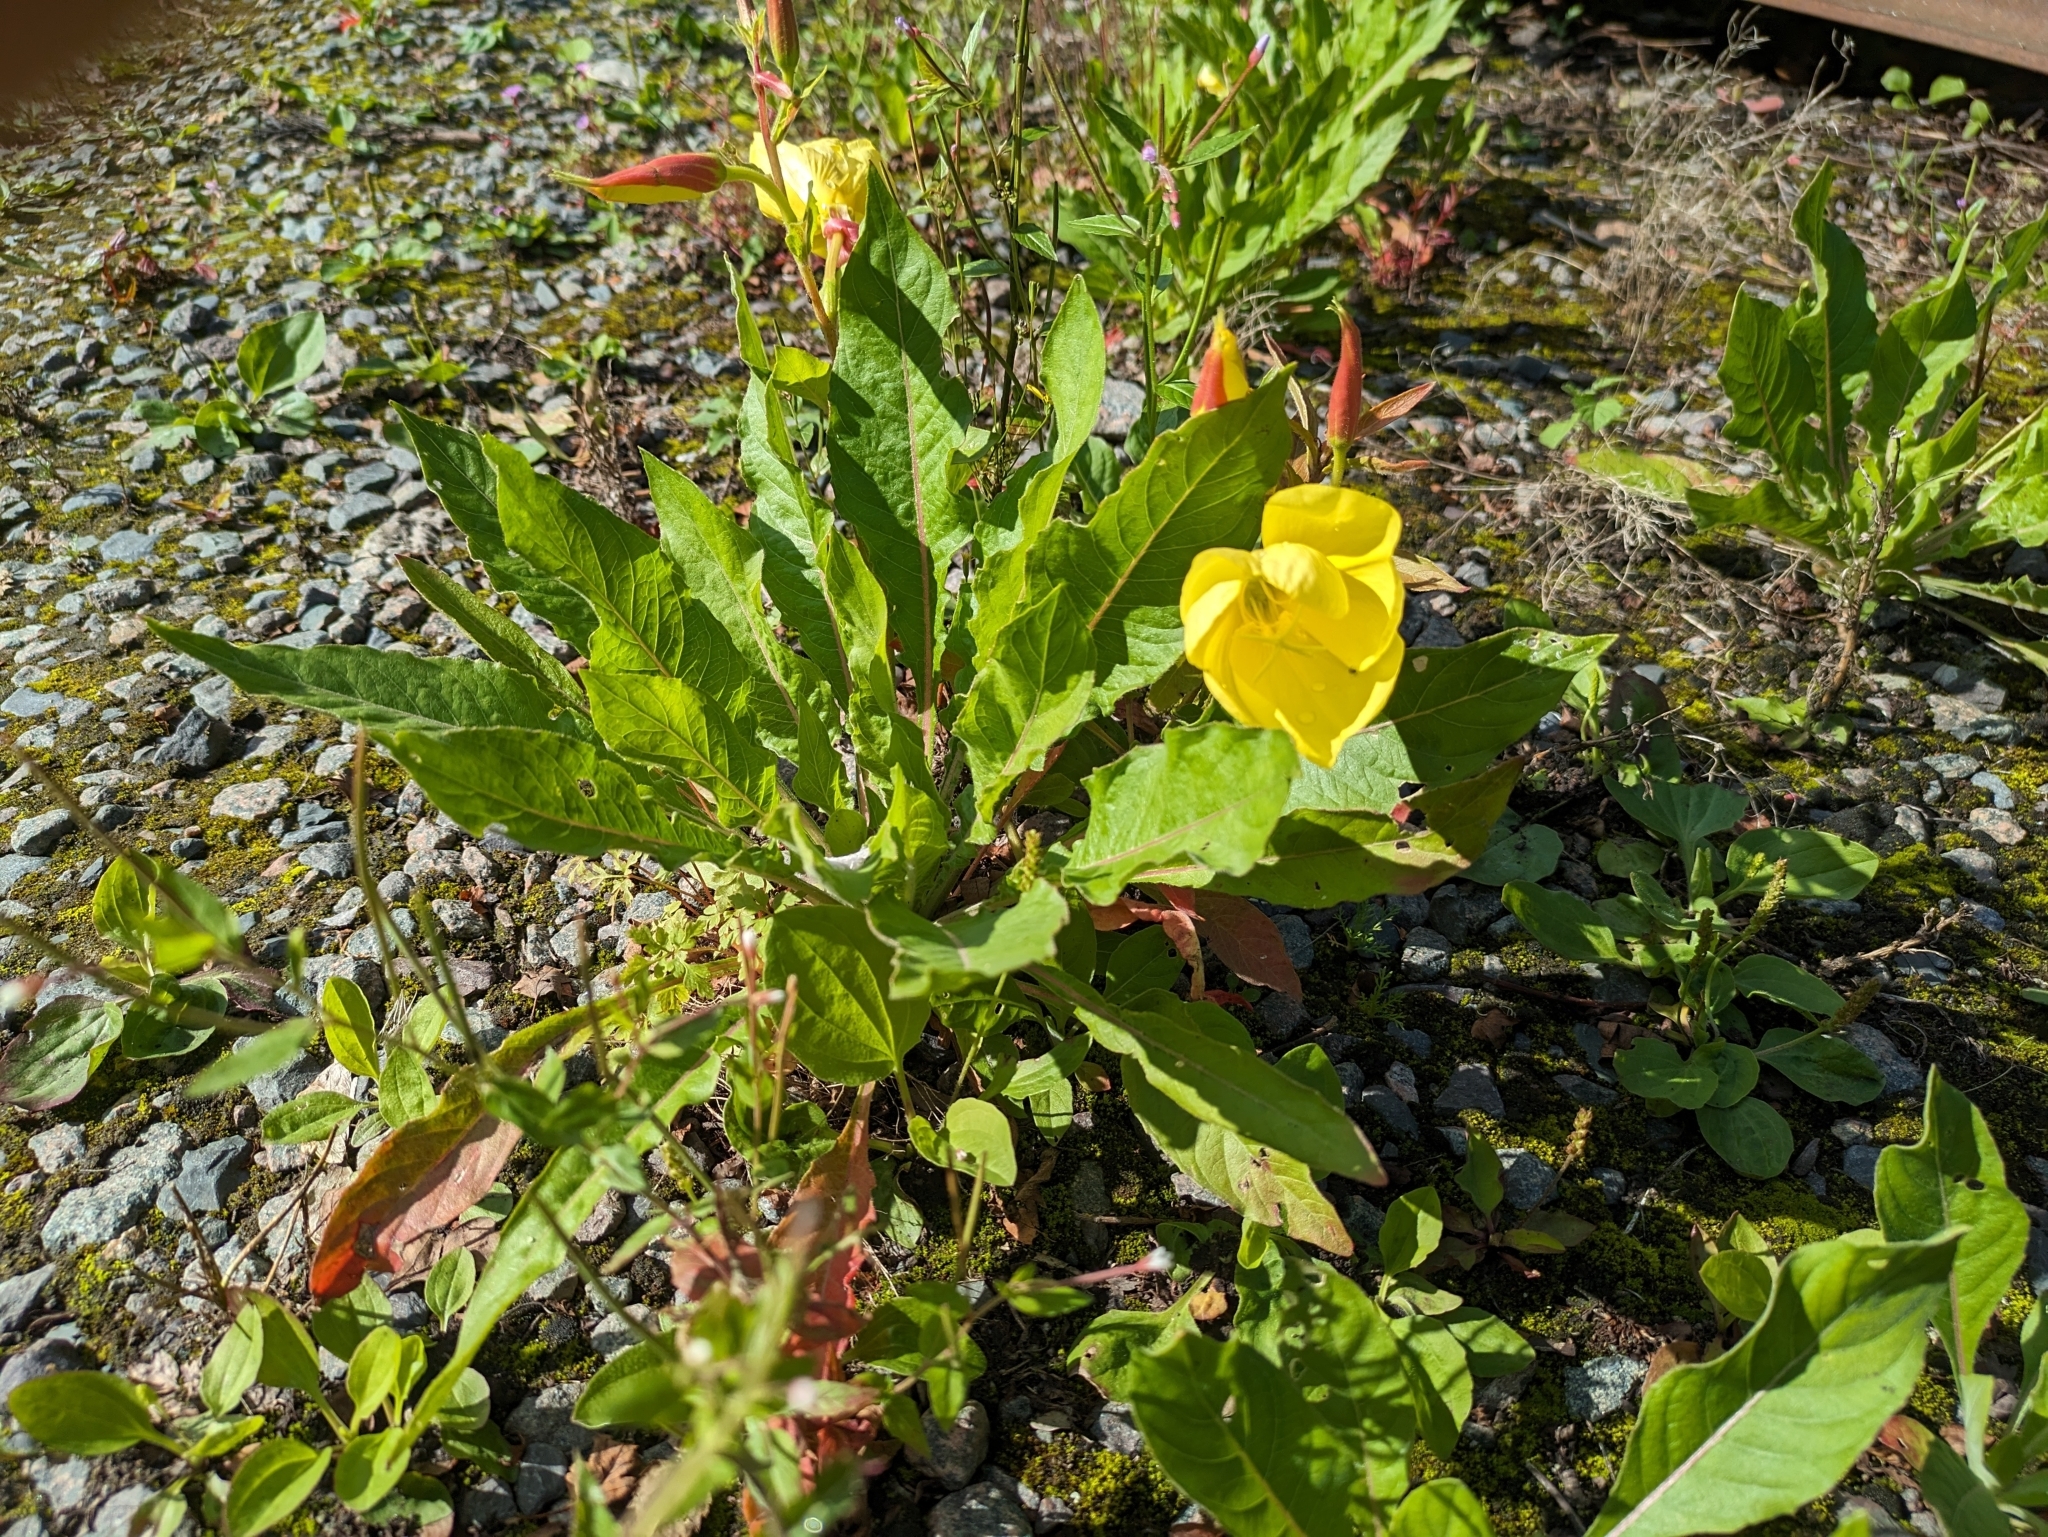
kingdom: Plantae
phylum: Tracheophyta
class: Magnoliopsida
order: Myrtales
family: Onagraceae
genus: Oenothera
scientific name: Oenothera glazioviana
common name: Large-flowered evening-primrose
